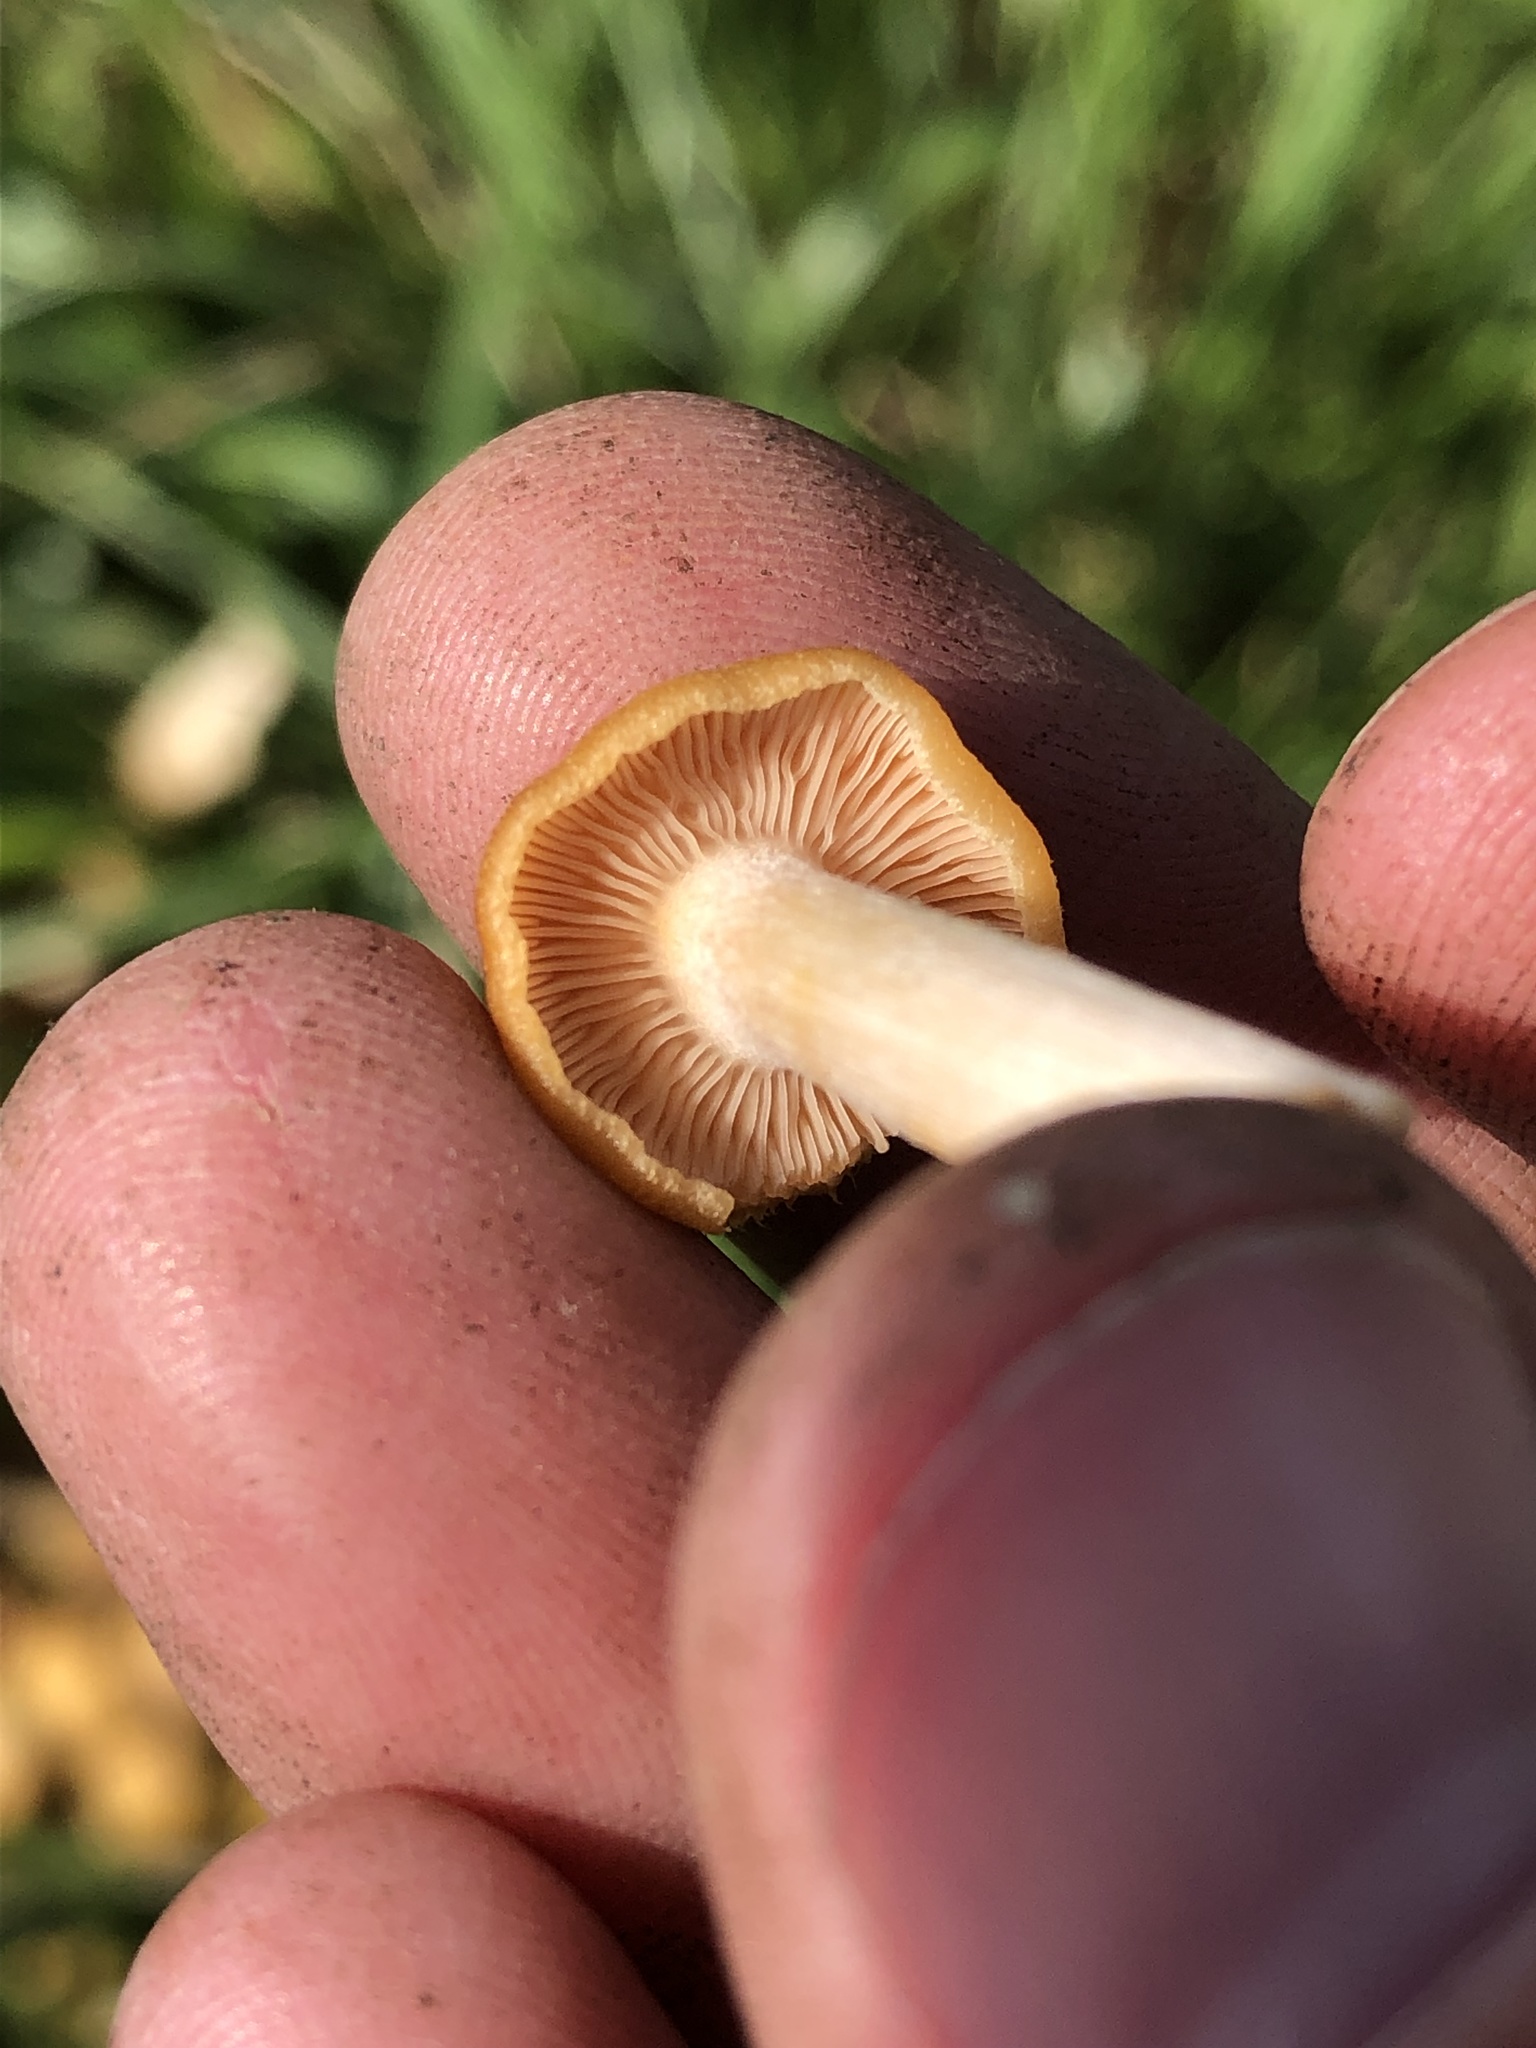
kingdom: Fungi
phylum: Basidiomycota
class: Agaricomycetes
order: Agaricales
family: Physalacriaceae
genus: Desarmillaria
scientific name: Desarmillaria caespitosa
